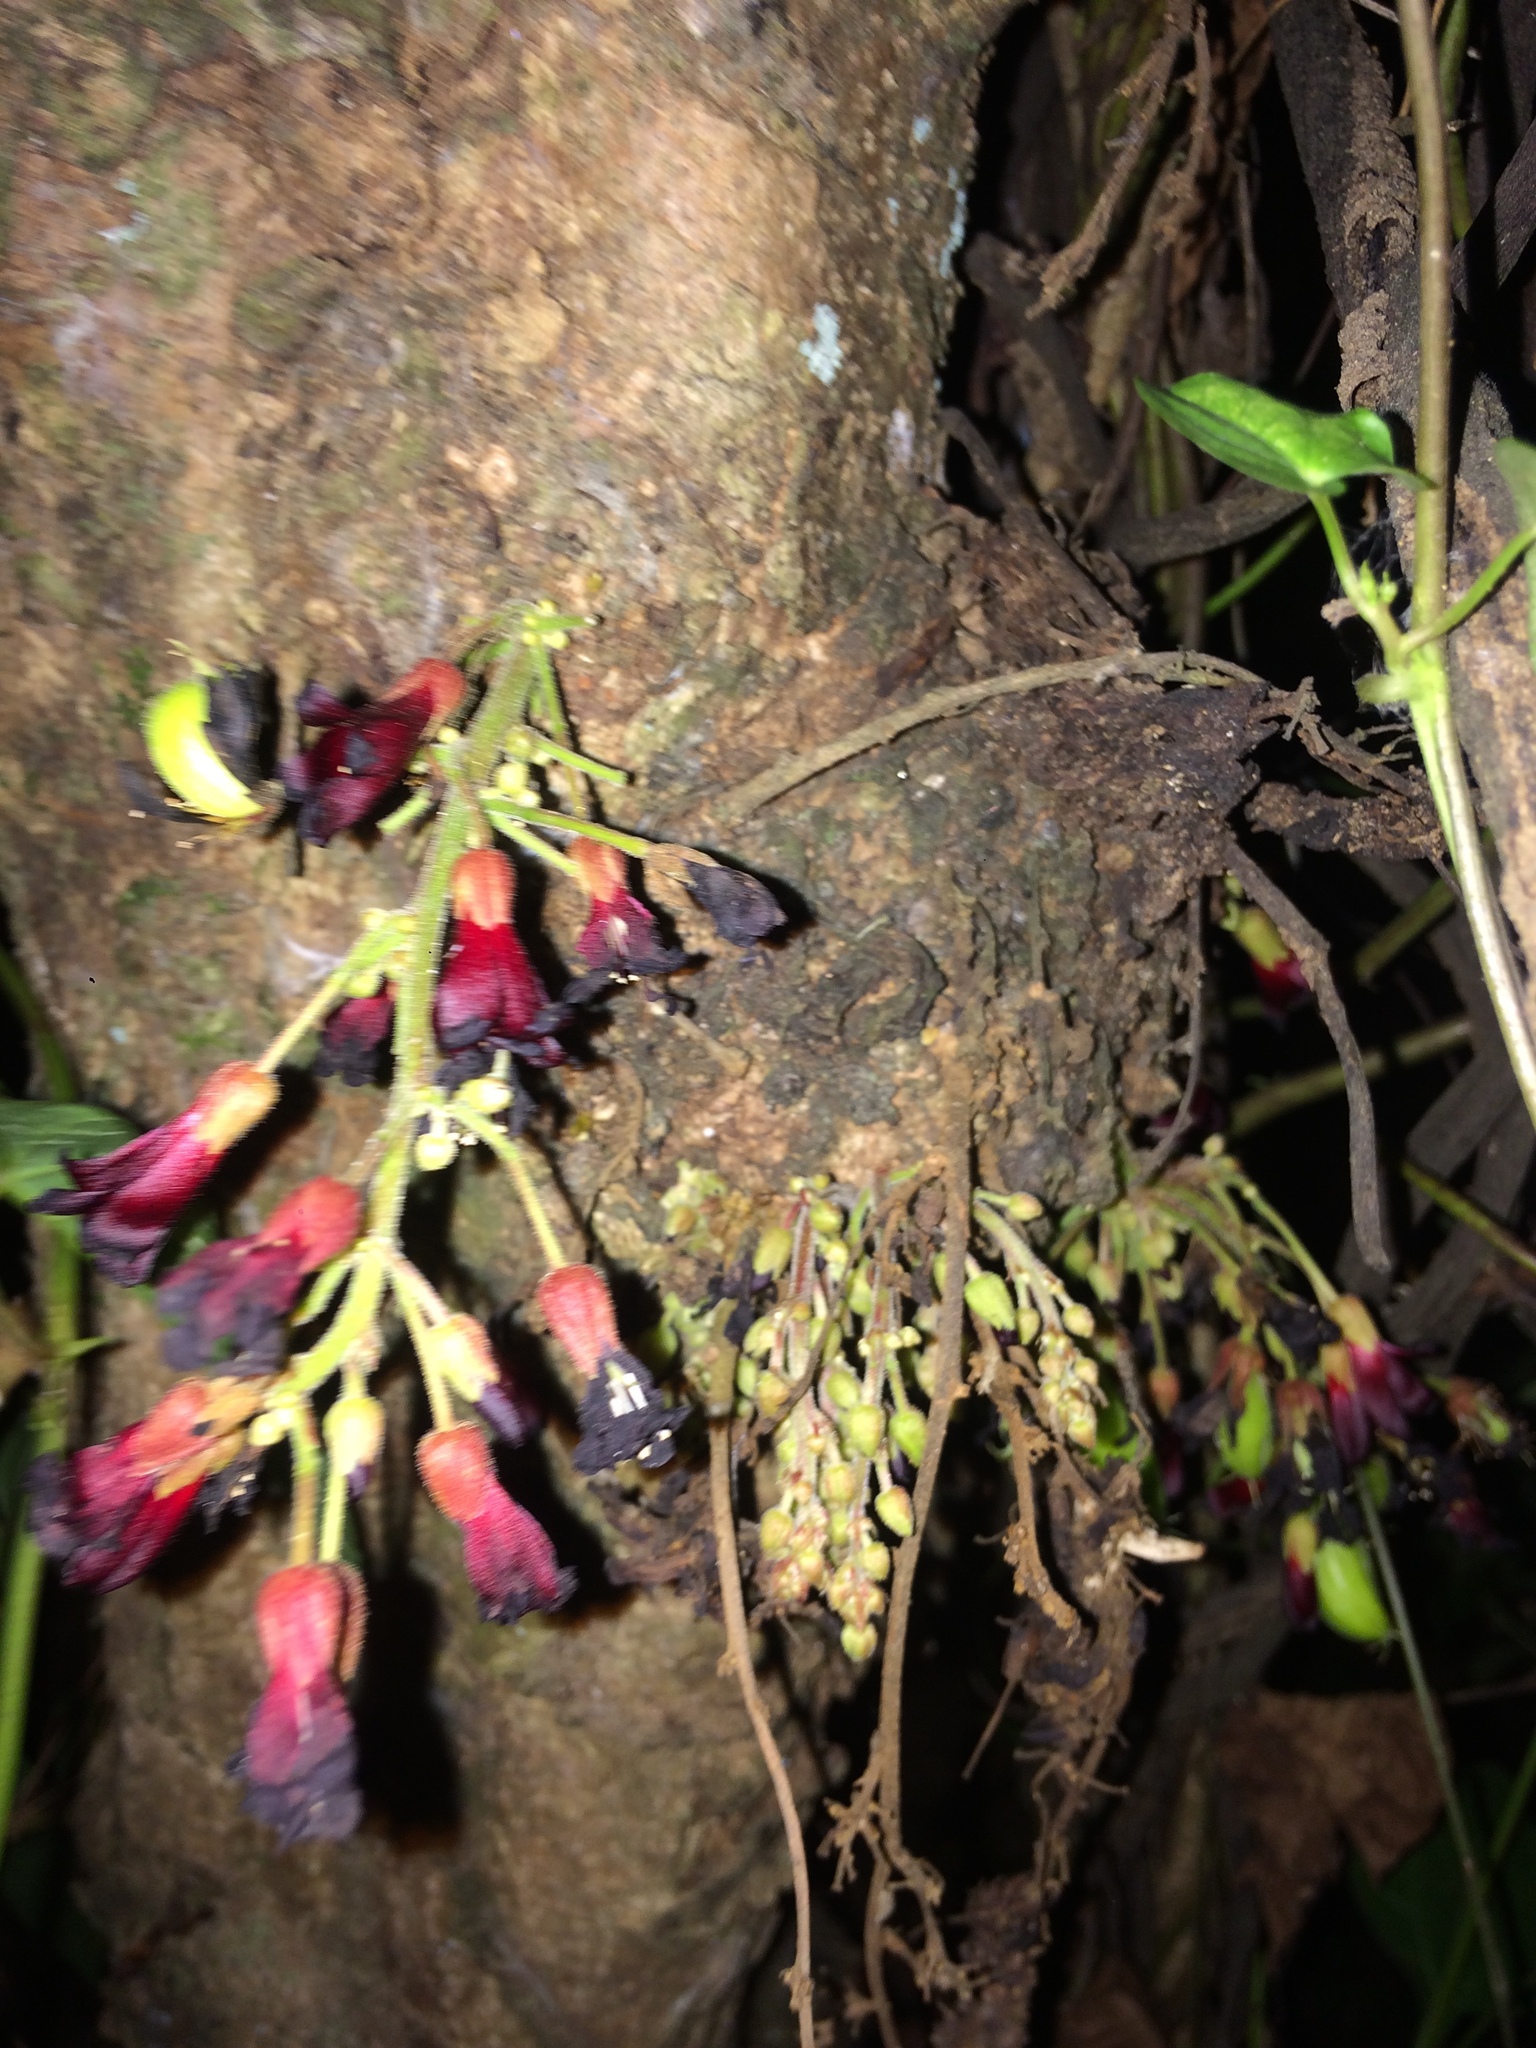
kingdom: Plantae
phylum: Tracheophyta
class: Magnoliopsida
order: Oxalidales
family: Oxalidaceae
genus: Averrhoa
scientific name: Averrhoa bilimbi
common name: Bilimbi
